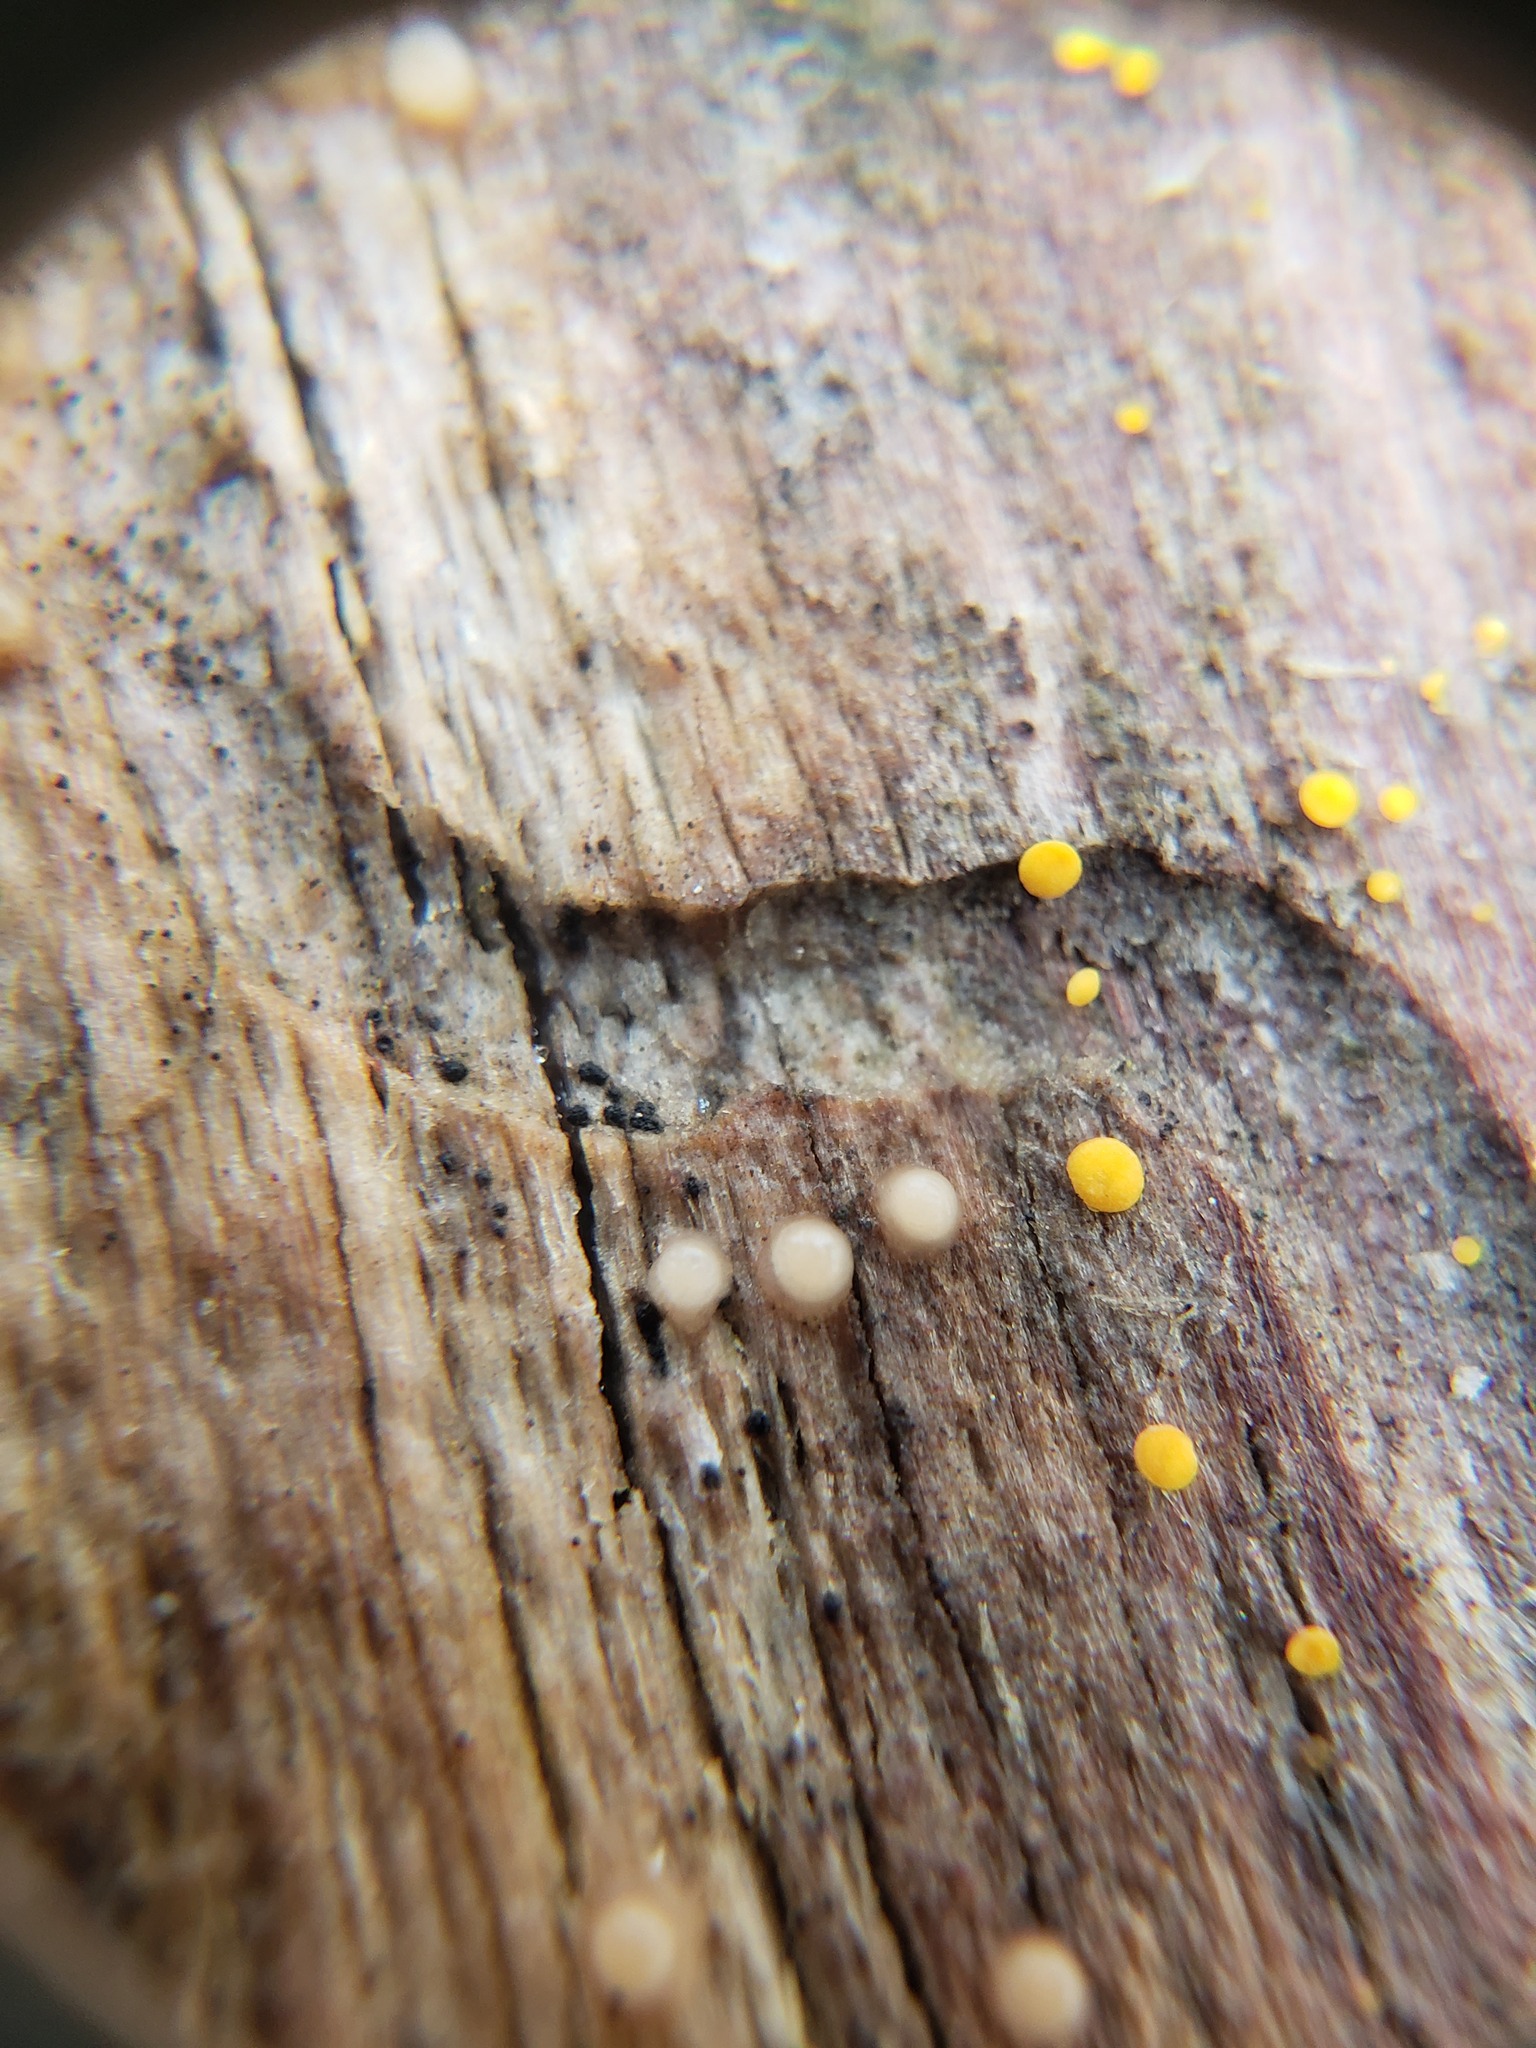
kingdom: Fungi
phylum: Basidiomycota
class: Atractiellomycetes
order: Atractiellales
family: Phleogenaceae
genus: Helicogloea
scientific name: Helicogloea compressa
